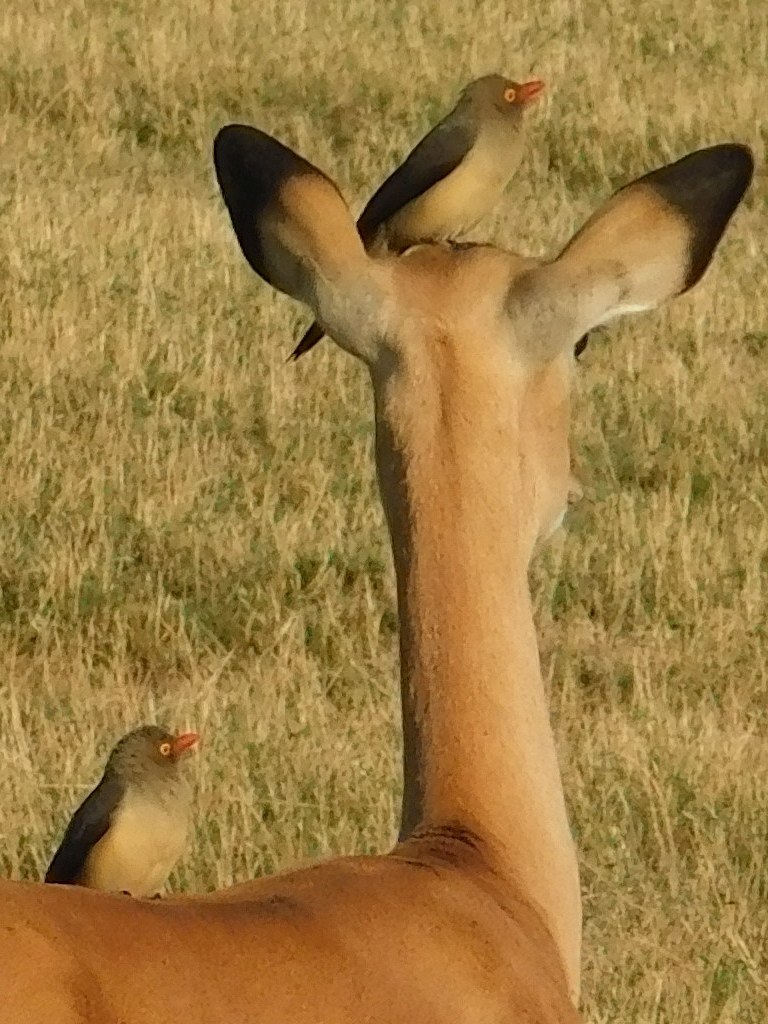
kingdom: Animalia
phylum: Chordata
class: Aves
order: Passeriformes
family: Buphagidae
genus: Buphagus
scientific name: Buphagus erythrorhynchus
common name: Red-billed oxpecker
